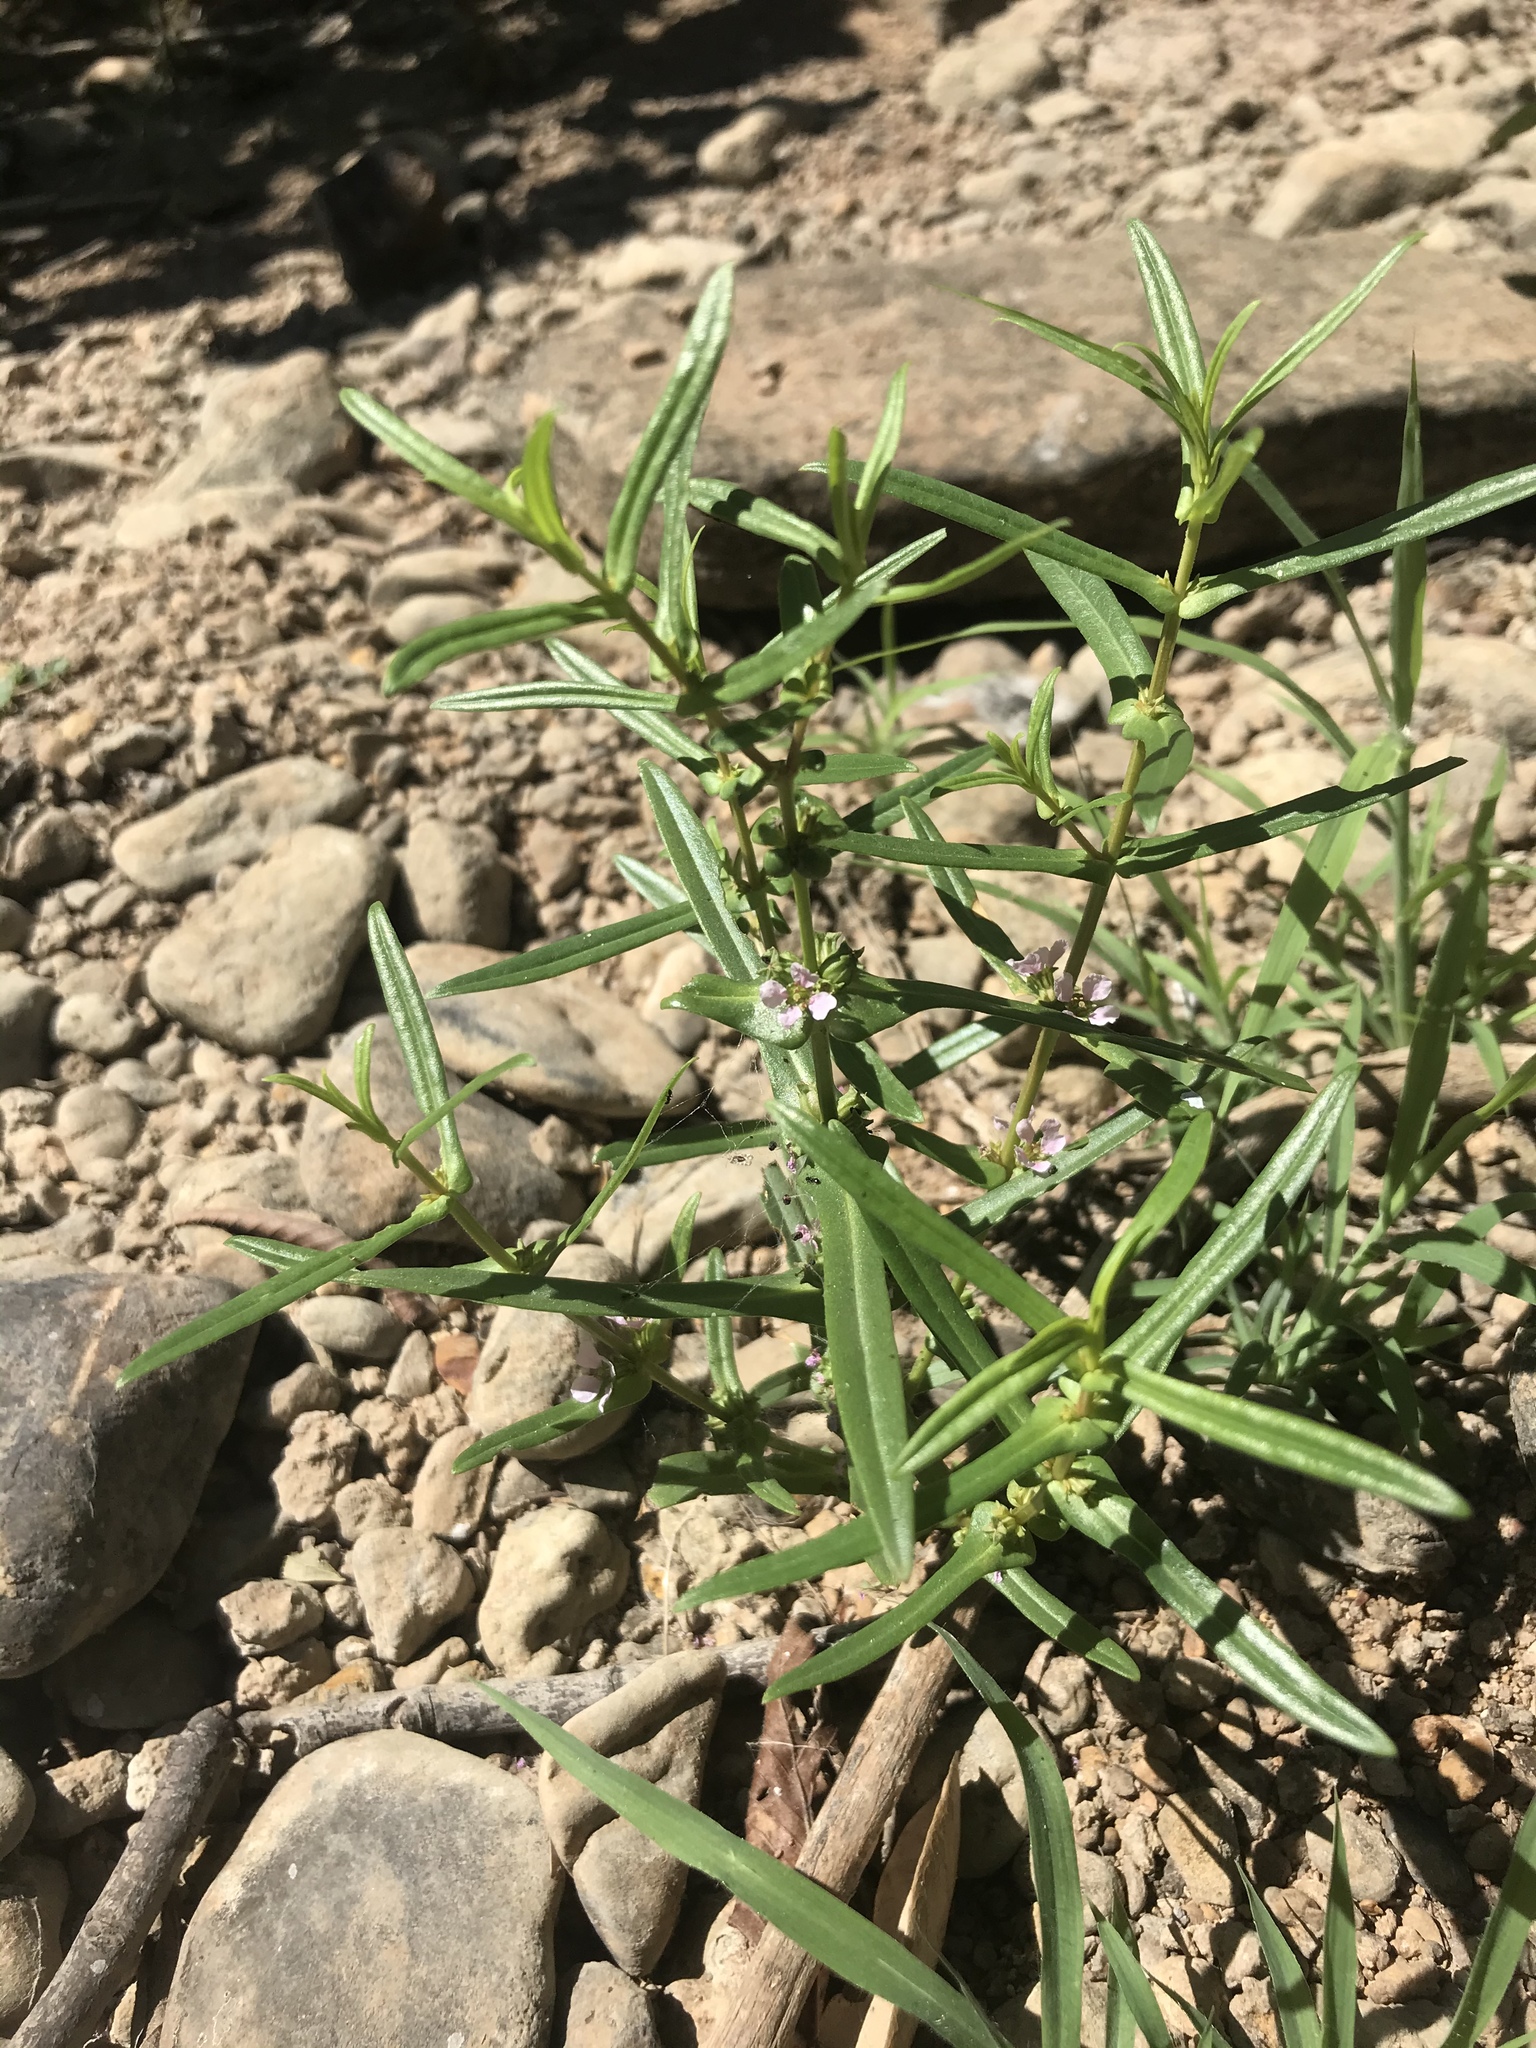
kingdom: Plantae
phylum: Tracheophyta
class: Magnoliopsida
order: Myrtales
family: Lythraceae
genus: Ammannia
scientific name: Ammannia robusta
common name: Grand ammannia
